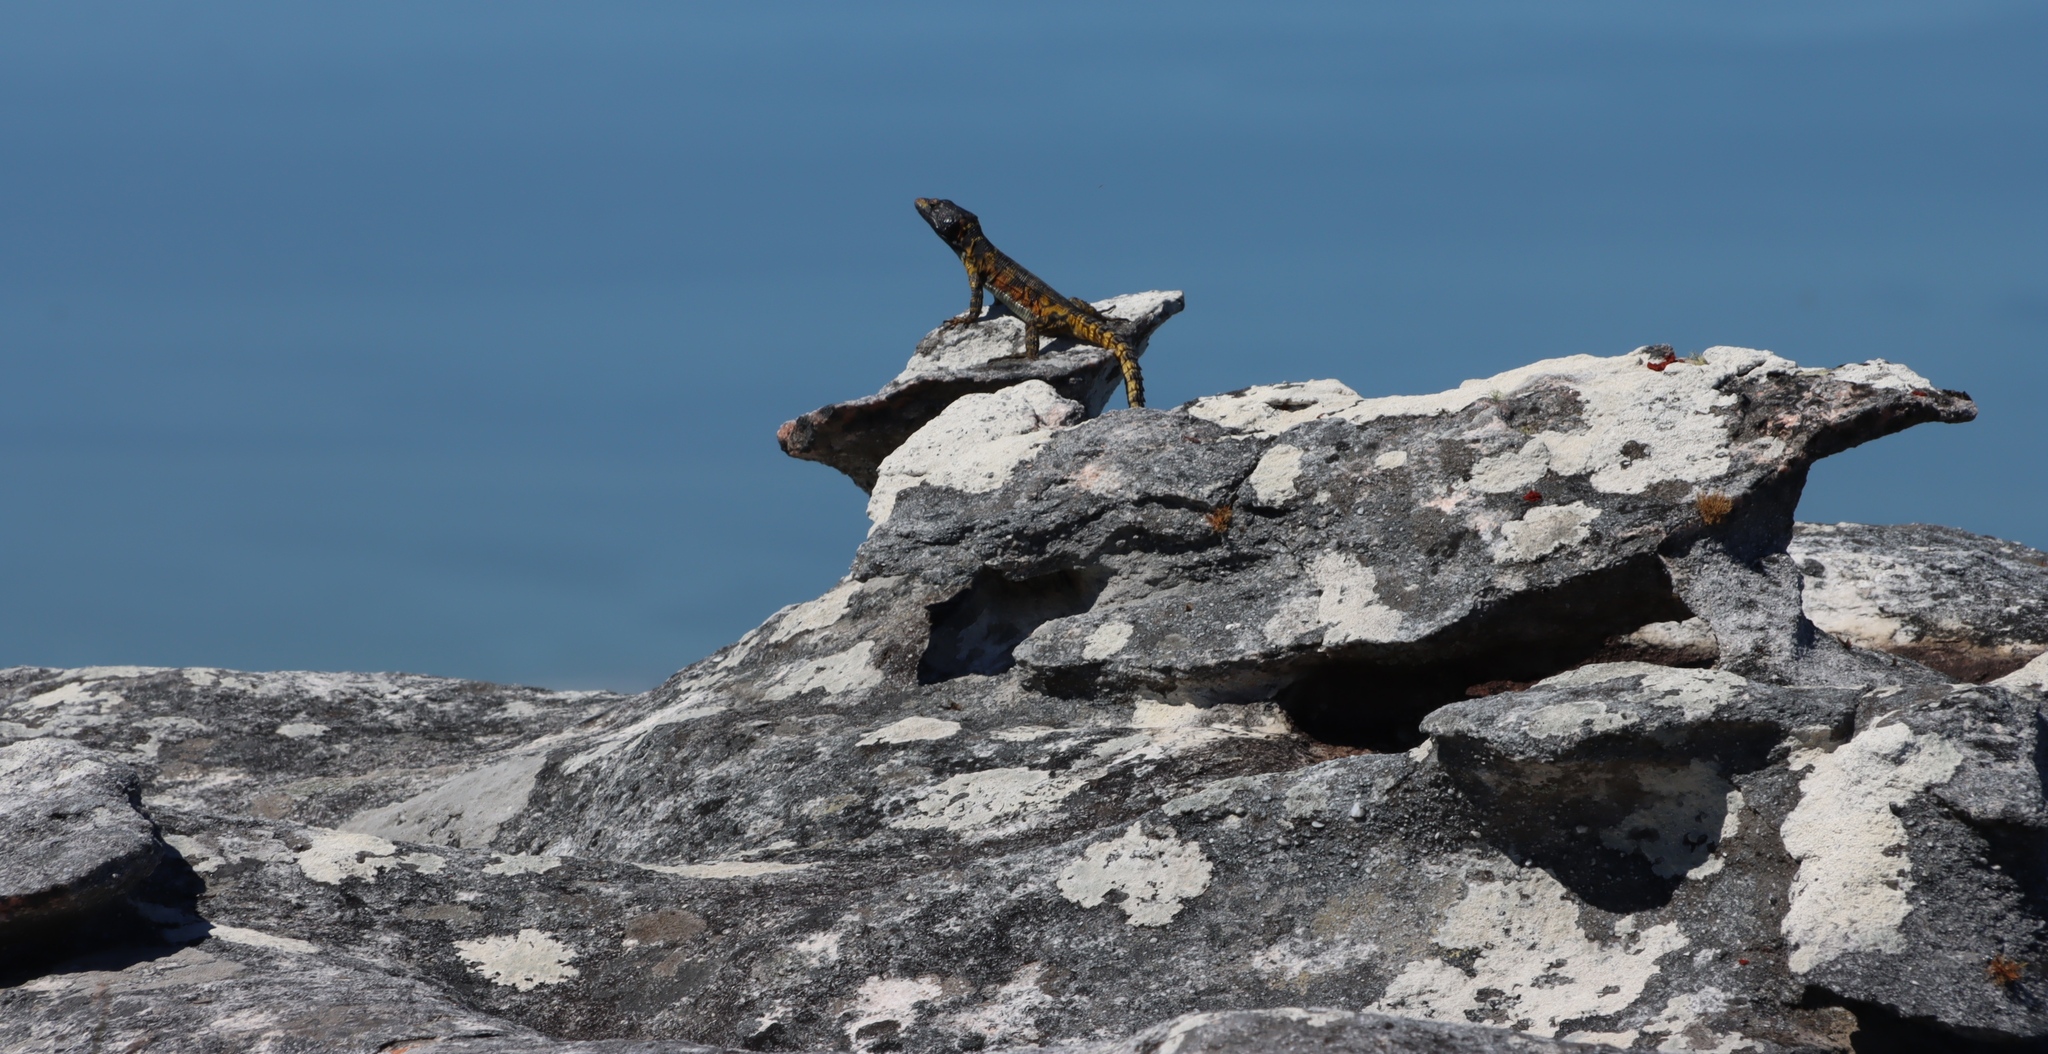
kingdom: Animalia
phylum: Chordata
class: Squamata
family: Cordylidae
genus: Pseudocordylus
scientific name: Pseudocordylus microlepidotus
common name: Cape crag lizard
